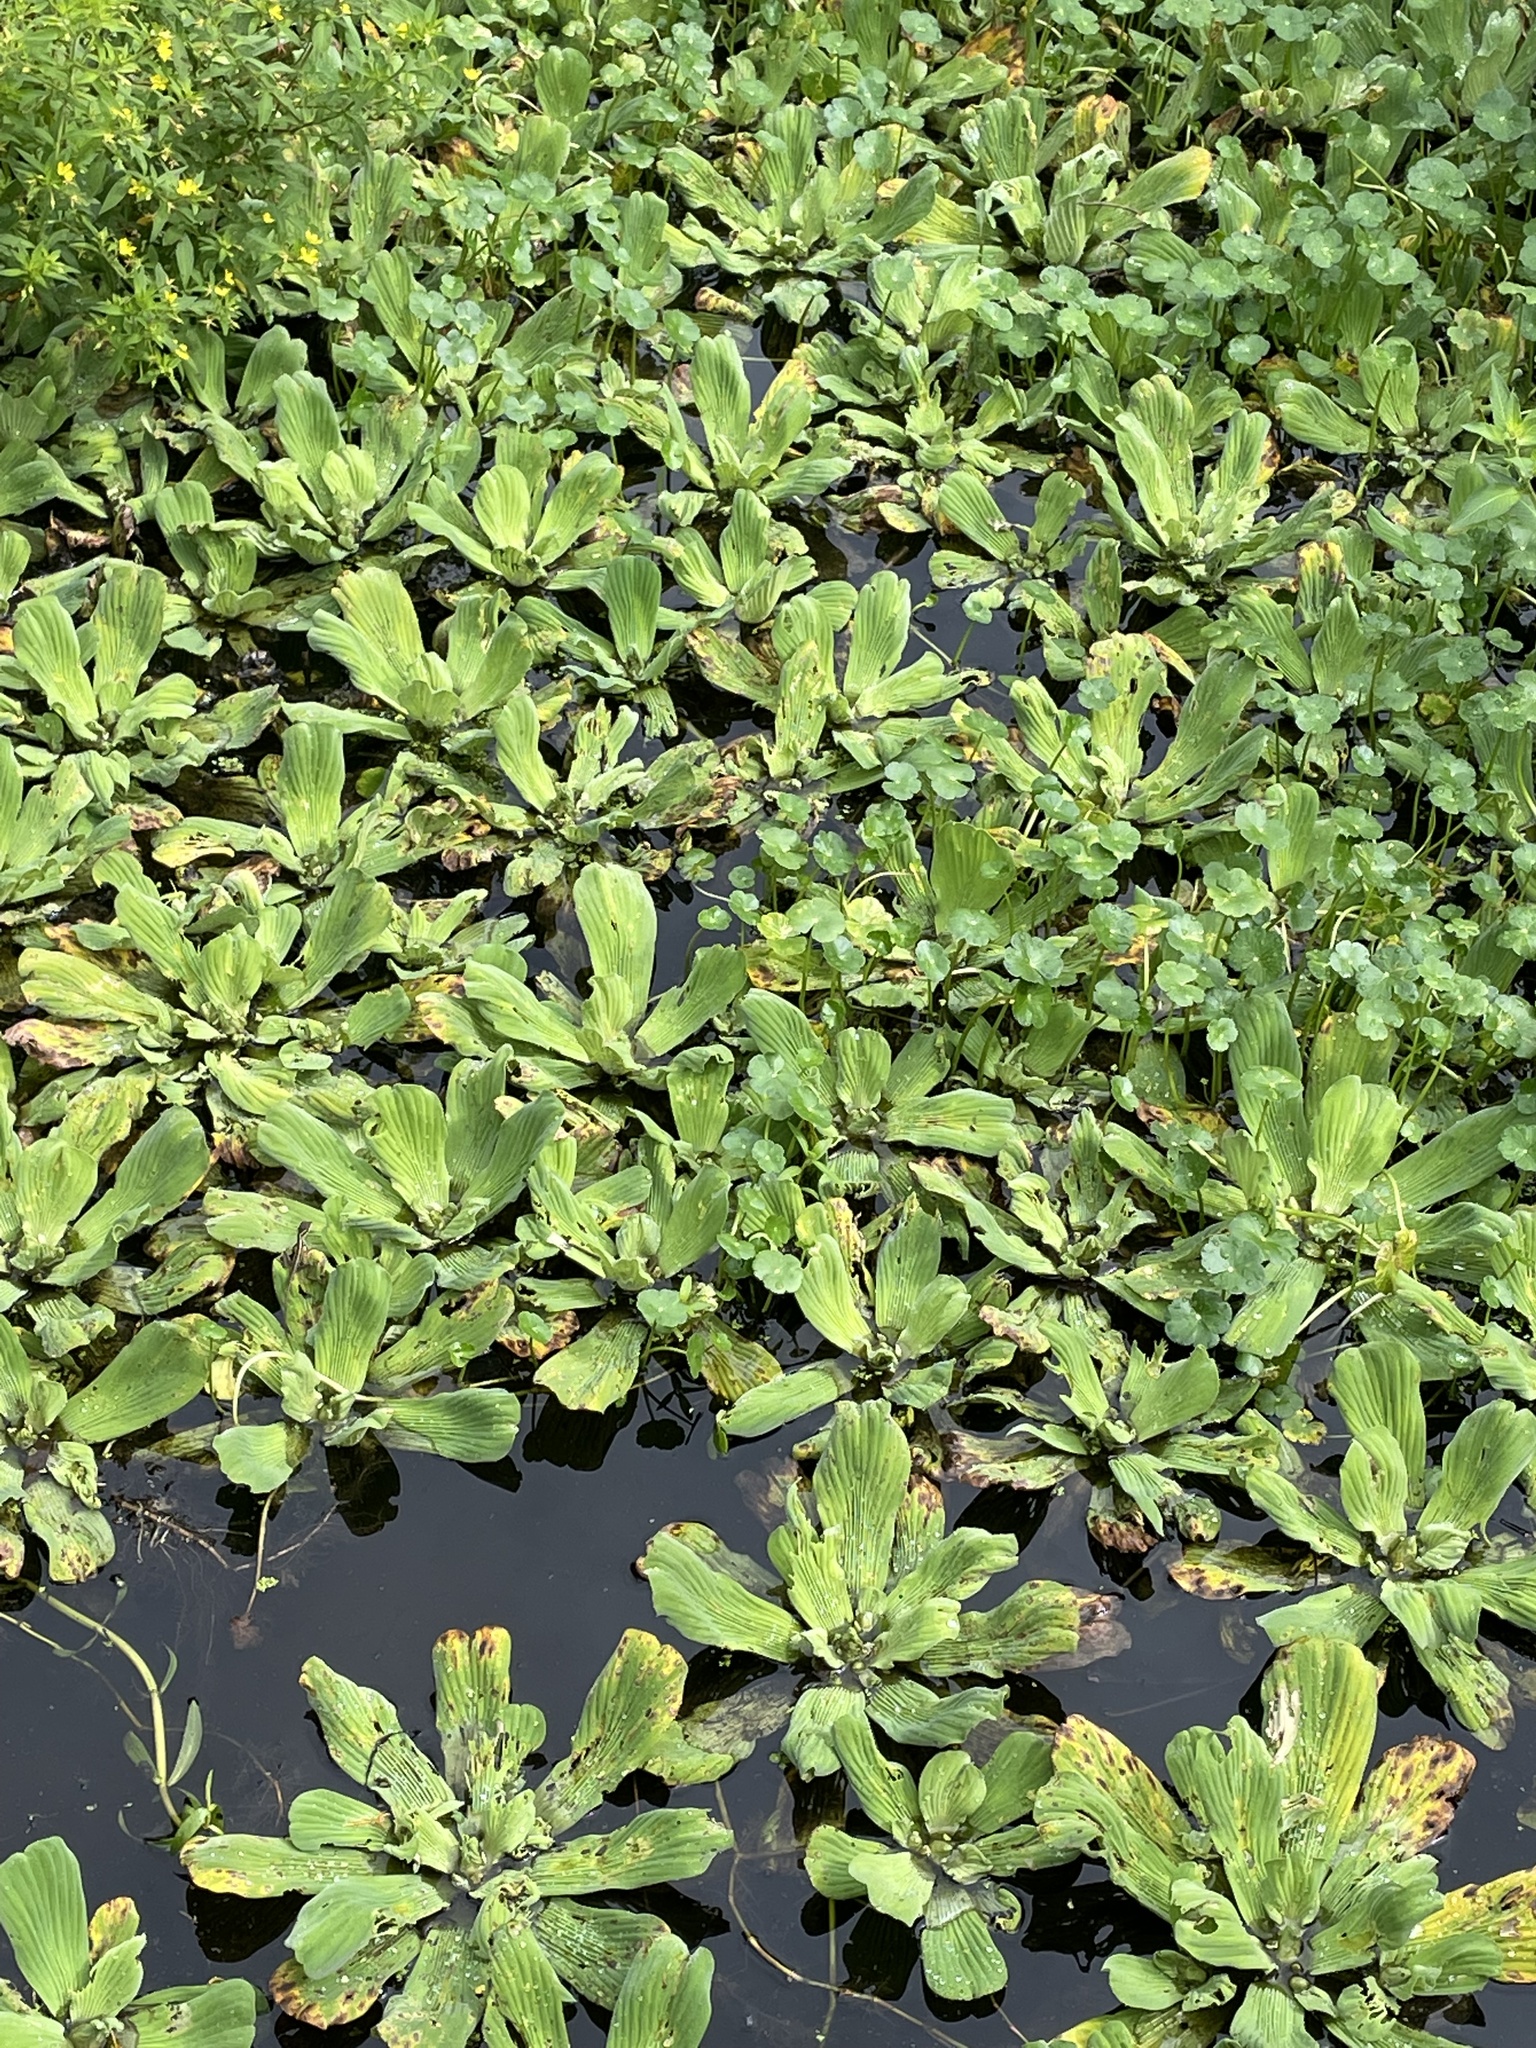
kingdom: Plantae
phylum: Tracheophyta
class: Liliopsida
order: Alismatales
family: Araceae
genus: Pistia
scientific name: Pistia stratiotes
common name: Water lettuce
